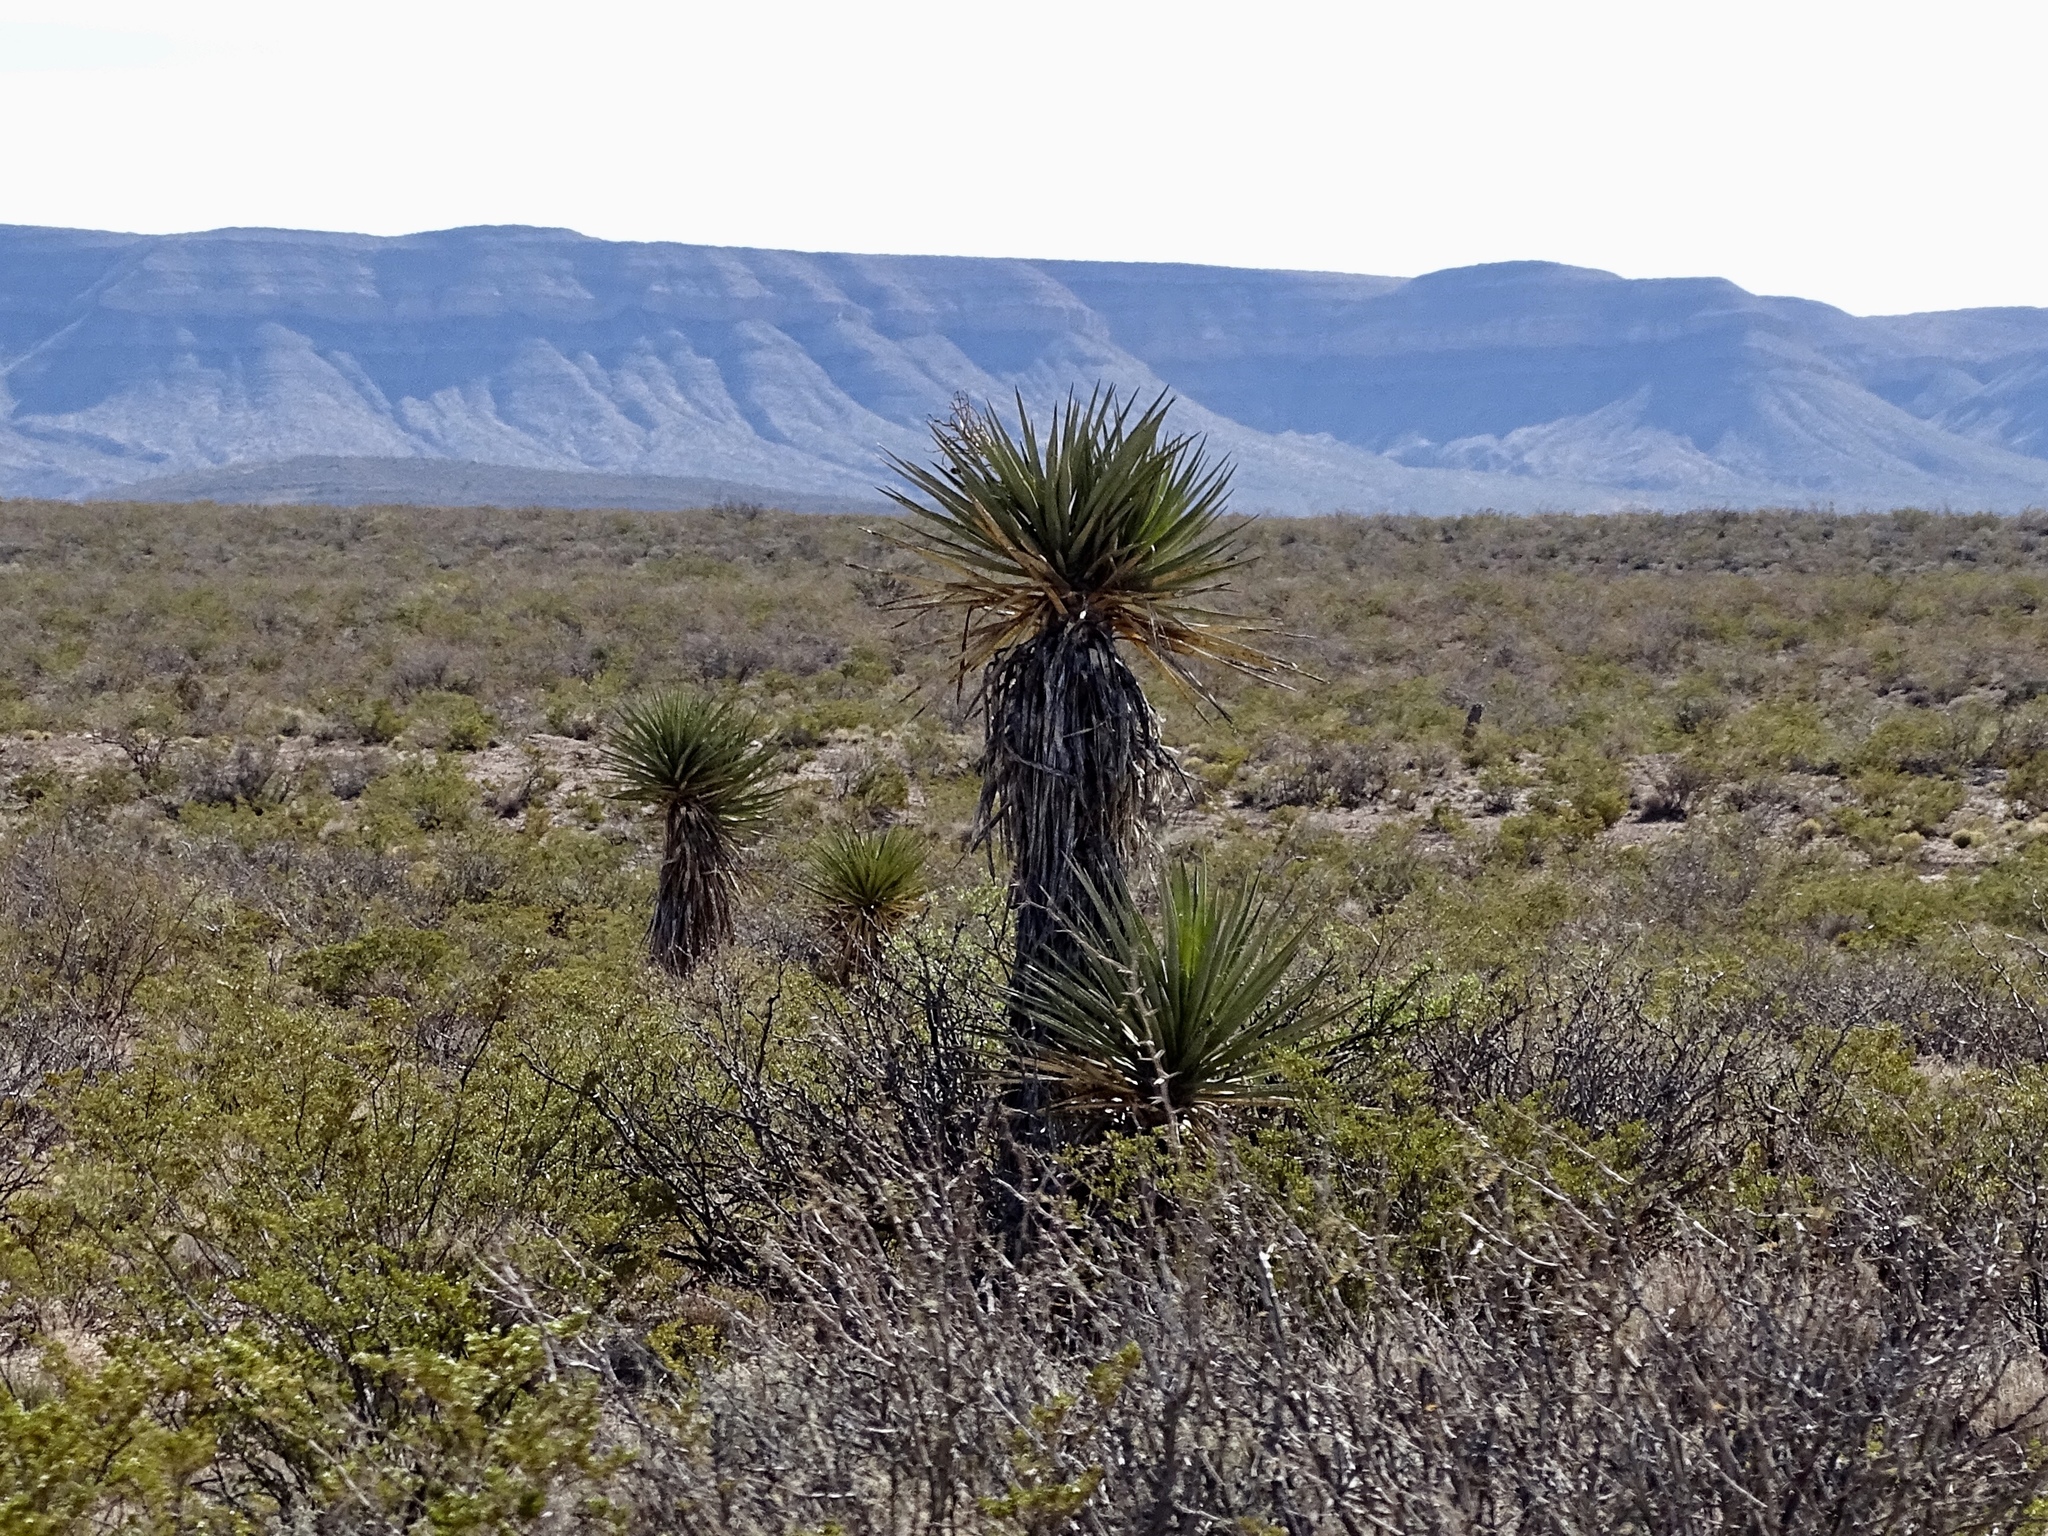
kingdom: Plantae
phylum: Tracheophyta
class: Liliopsida
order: Asparagales
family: Asparagaceae
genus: Yucca
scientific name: Yucca treculiana
